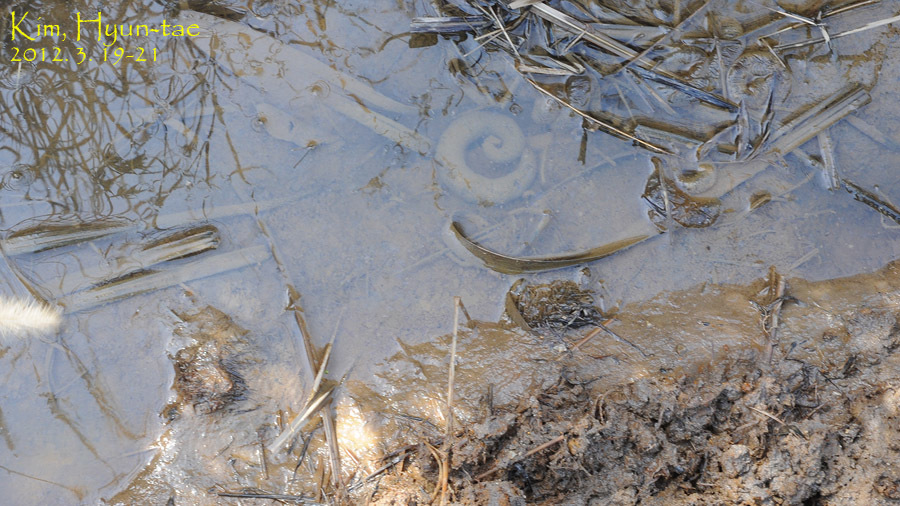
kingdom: Animalia
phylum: Chordata
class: Amphibia
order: Caudata
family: Hynobiidae
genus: Hynobius
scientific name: Hynobius leechii
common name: Gensan salamander
